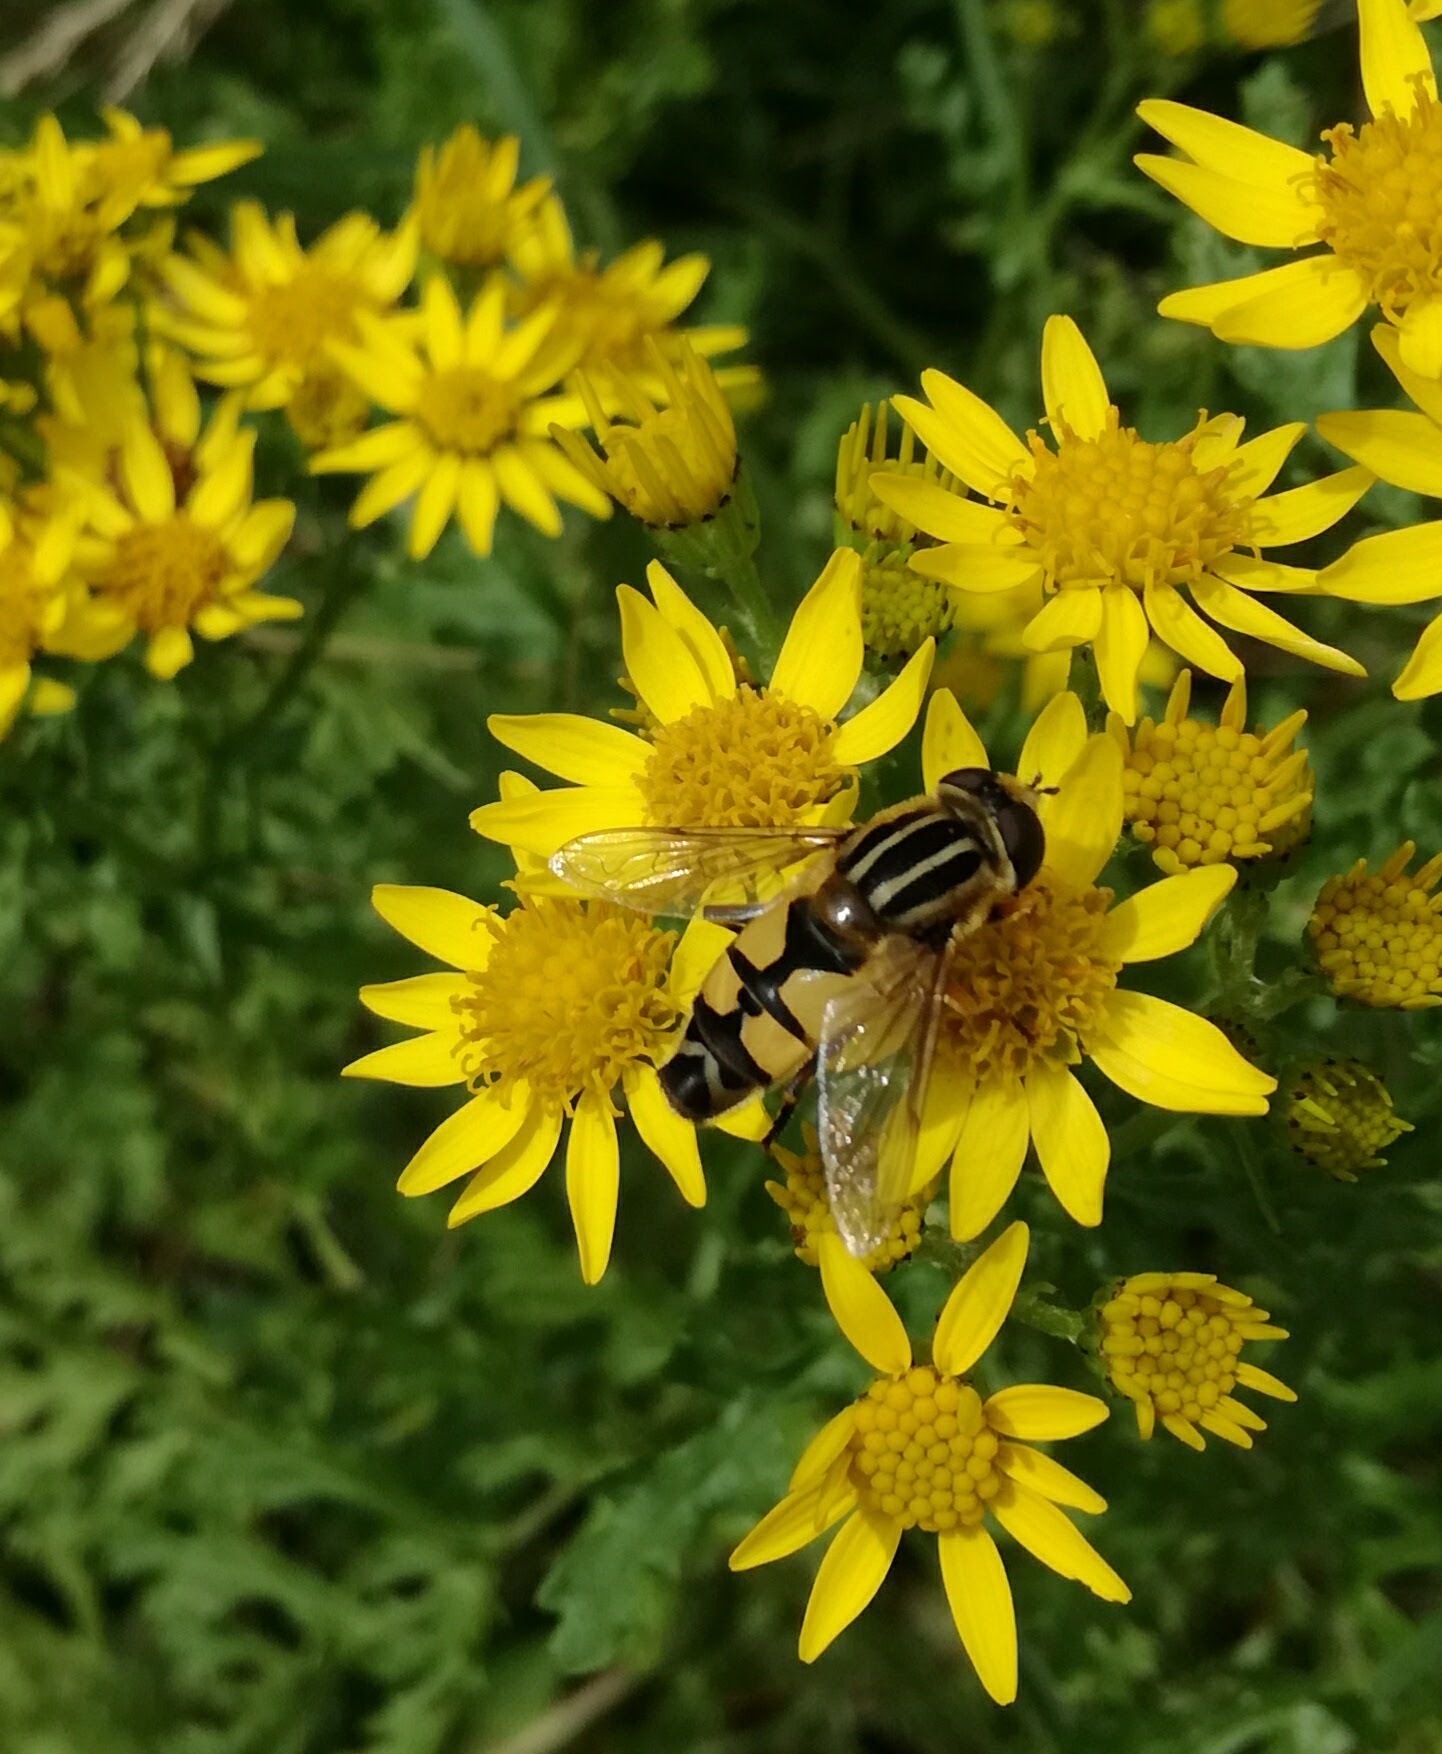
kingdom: Animalia
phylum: Arthropoda
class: Insecta
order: Diptera
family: Syrphidae
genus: Helophilus
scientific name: Helophilus trivittatus
